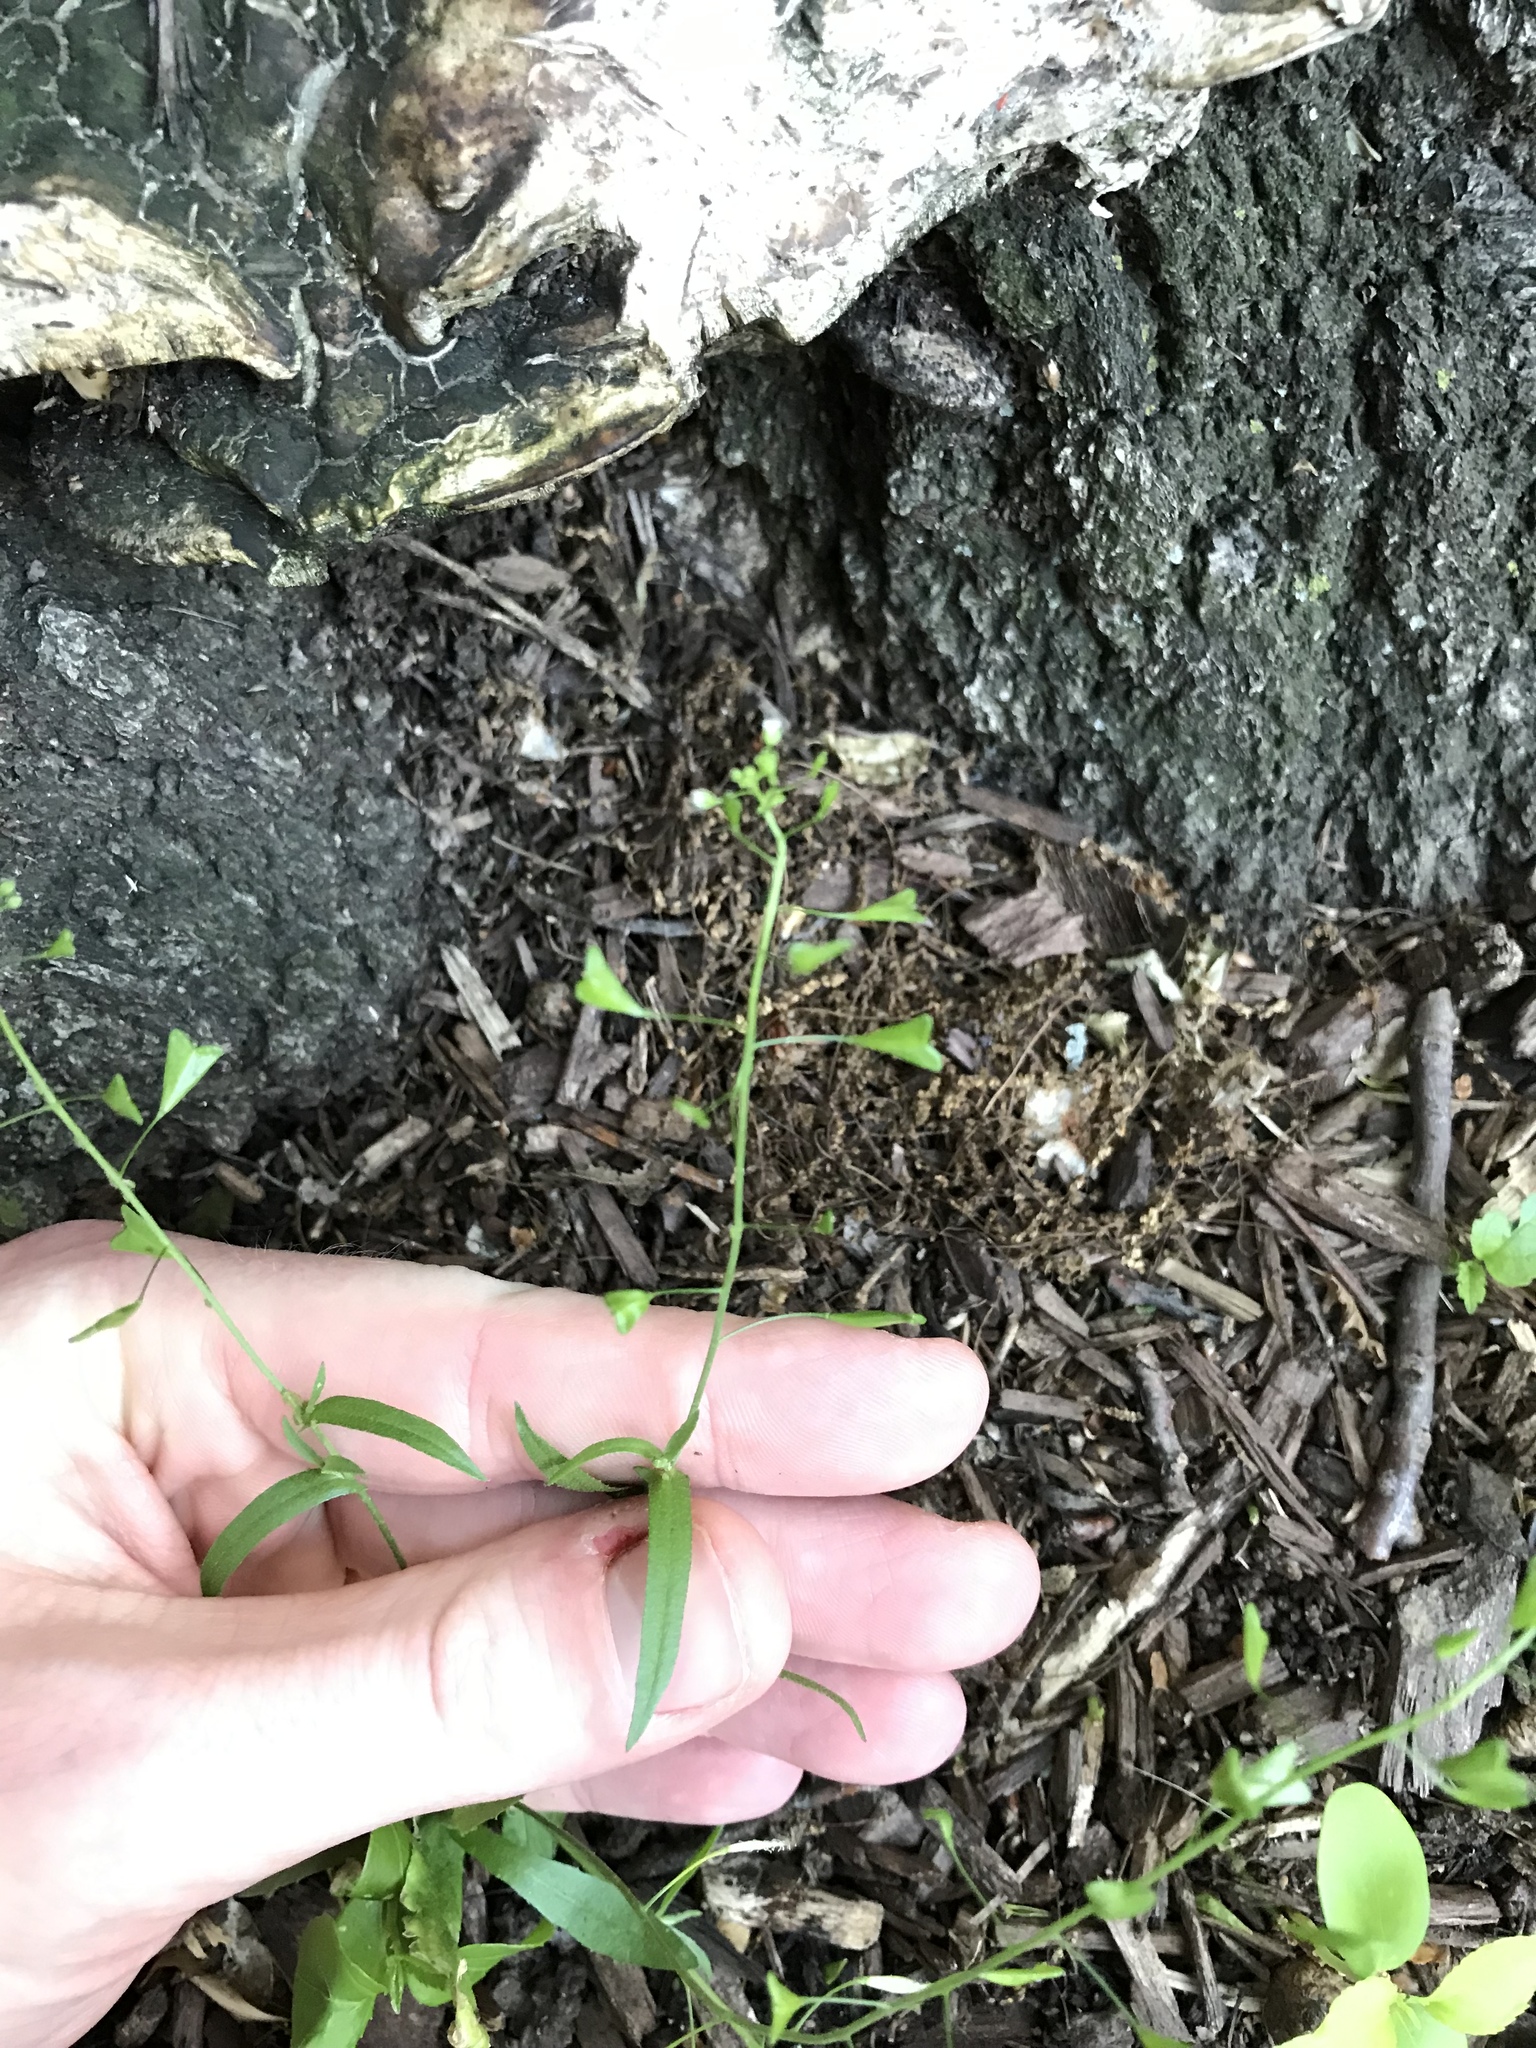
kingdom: Plantae
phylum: Tracheophyta
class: Magnoliopsida
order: Brassicales
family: Brassicaceae
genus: Capsella
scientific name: Capsella bursa-pastoris
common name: Shepherd's purse
